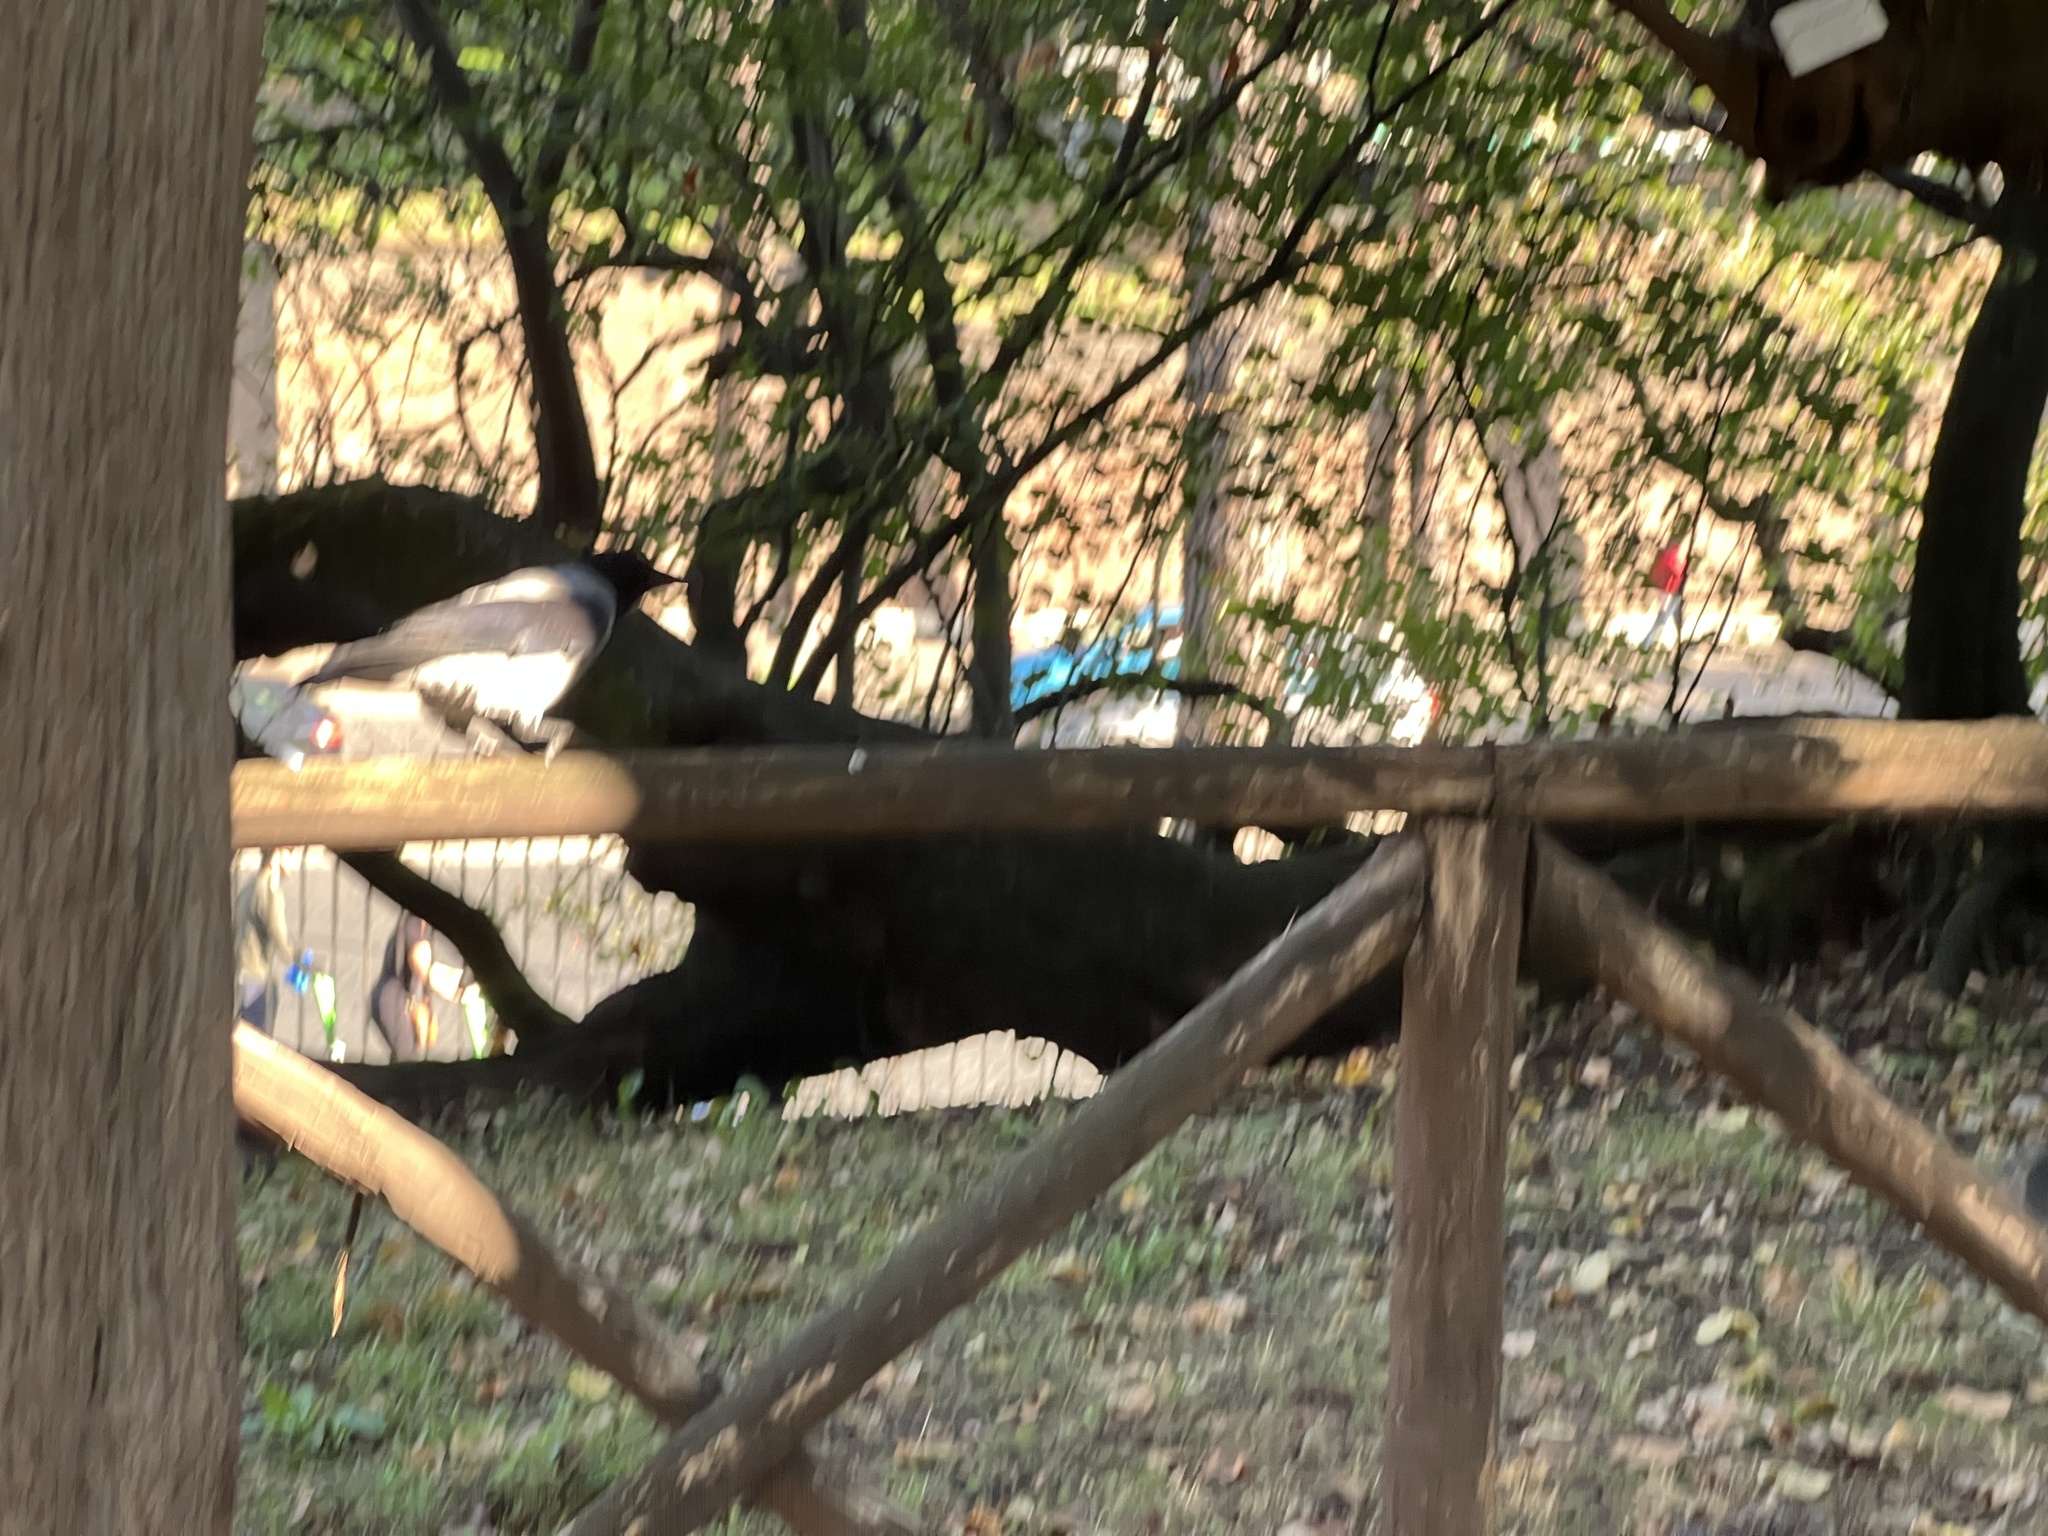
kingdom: Animalia
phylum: Chordata
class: Aves
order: Passeriformes
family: Corvidae
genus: Corvus
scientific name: Corvus cornix
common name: Hooded crow
